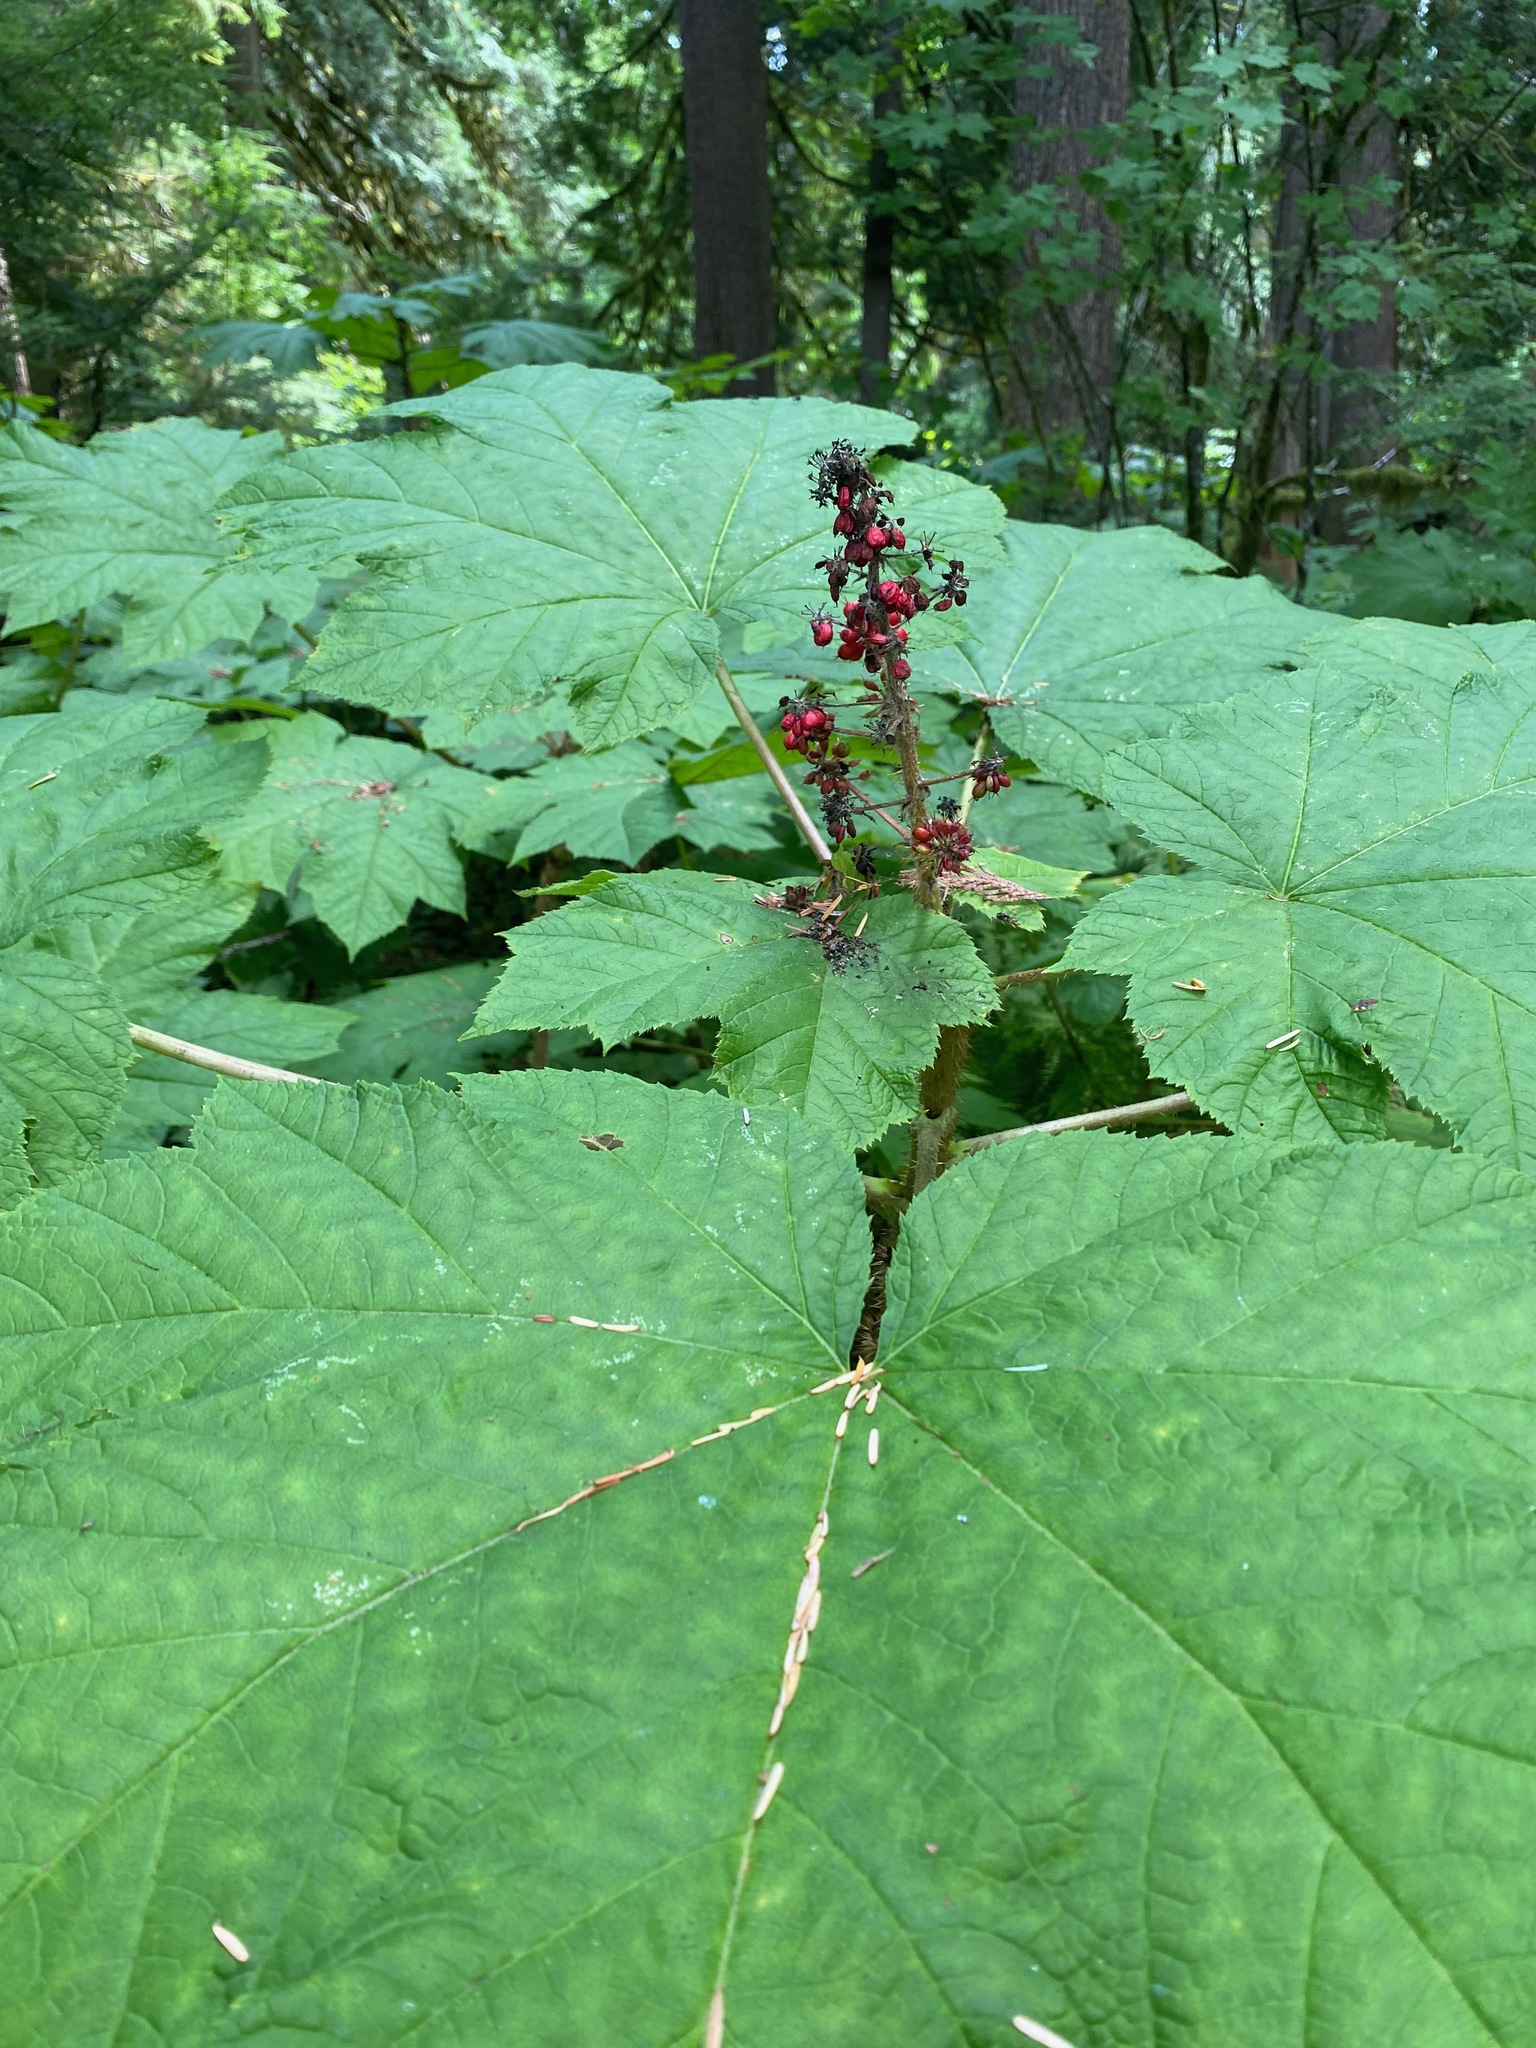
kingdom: Plantae
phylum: Tracheophyta
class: Magnoliopsida
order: Apiales
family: Araliaceae
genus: Oplopanax
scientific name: Oplopanax horridus
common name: Devil's walking-stick
